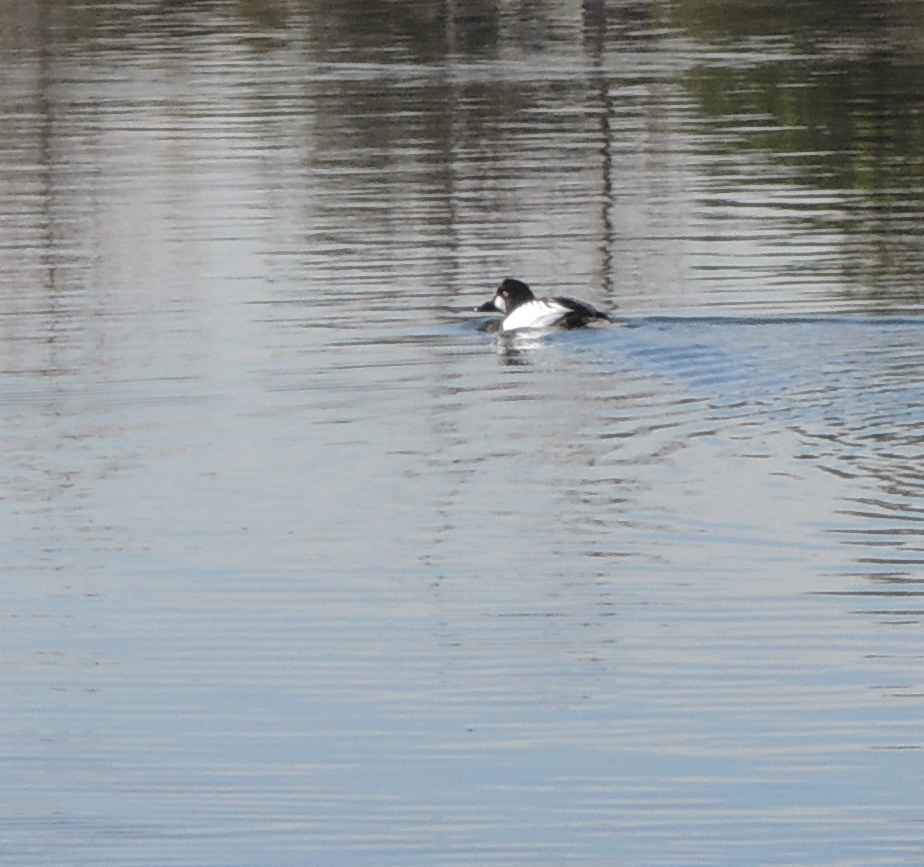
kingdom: Animalia
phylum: Chordata
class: Aves
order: Anseriformes
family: Anatidae
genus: Bucephala
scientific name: Bucephala clangula
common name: Common goldeneye
